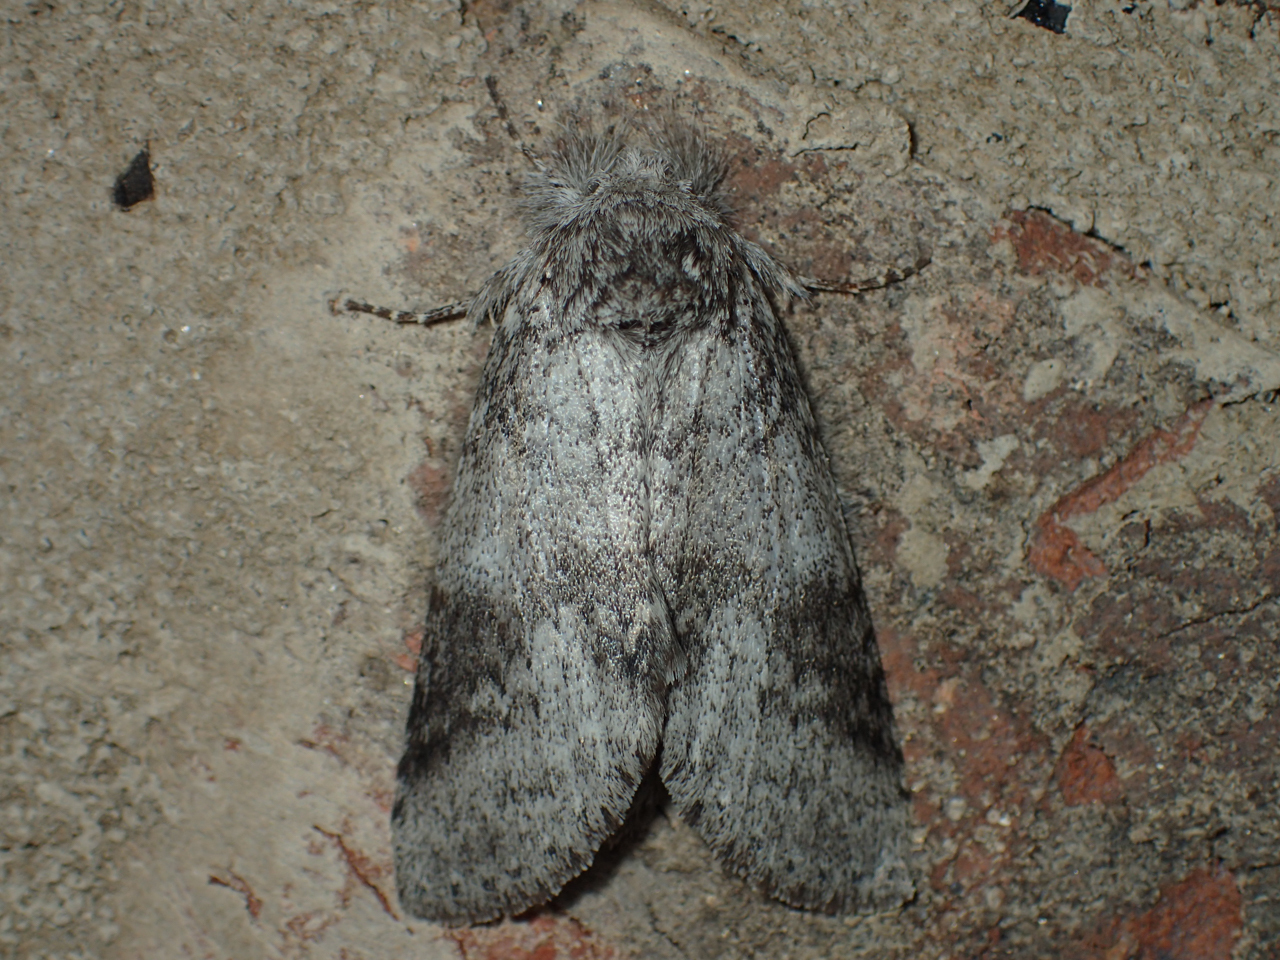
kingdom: Animalia
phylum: Arthropoda
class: Insecta
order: Lepidoptera
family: Notodontidae
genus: Lochmaeus
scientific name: Lochmaeus manteo
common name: Variable oakleaf caterpillar moth
